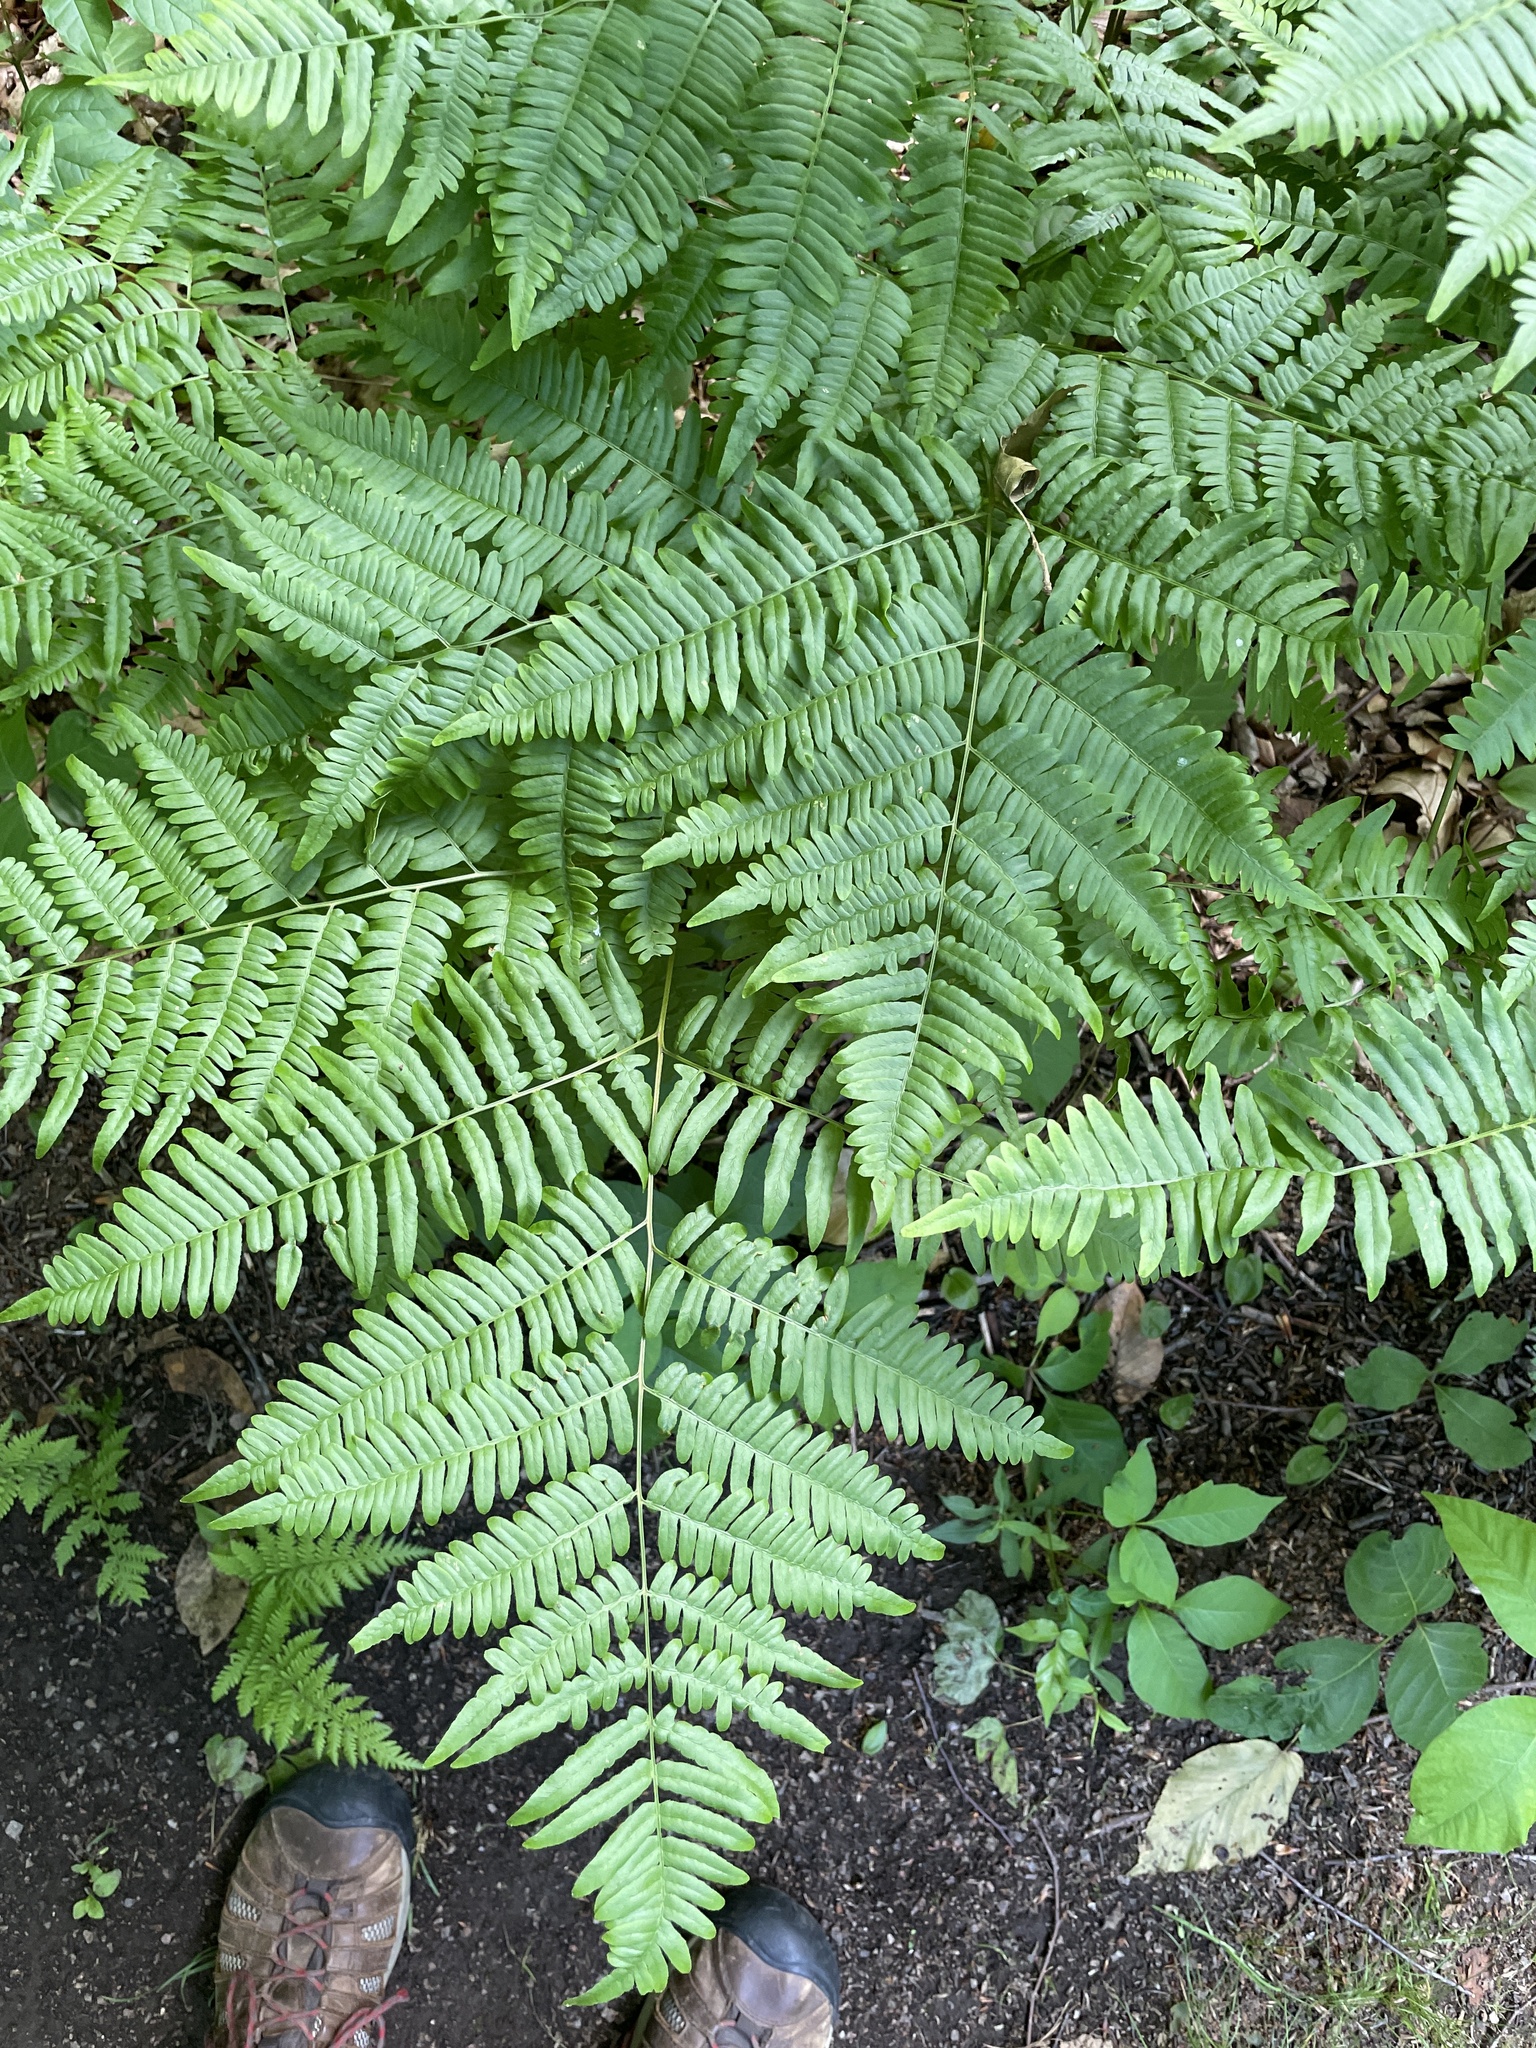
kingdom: Plantae
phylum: Tracheophyta
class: Polypodiopsida
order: Polypodiales
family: Dennstaedtiaceae
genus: Pteridium
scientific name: Pteridium aquilinum
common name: Bracken
